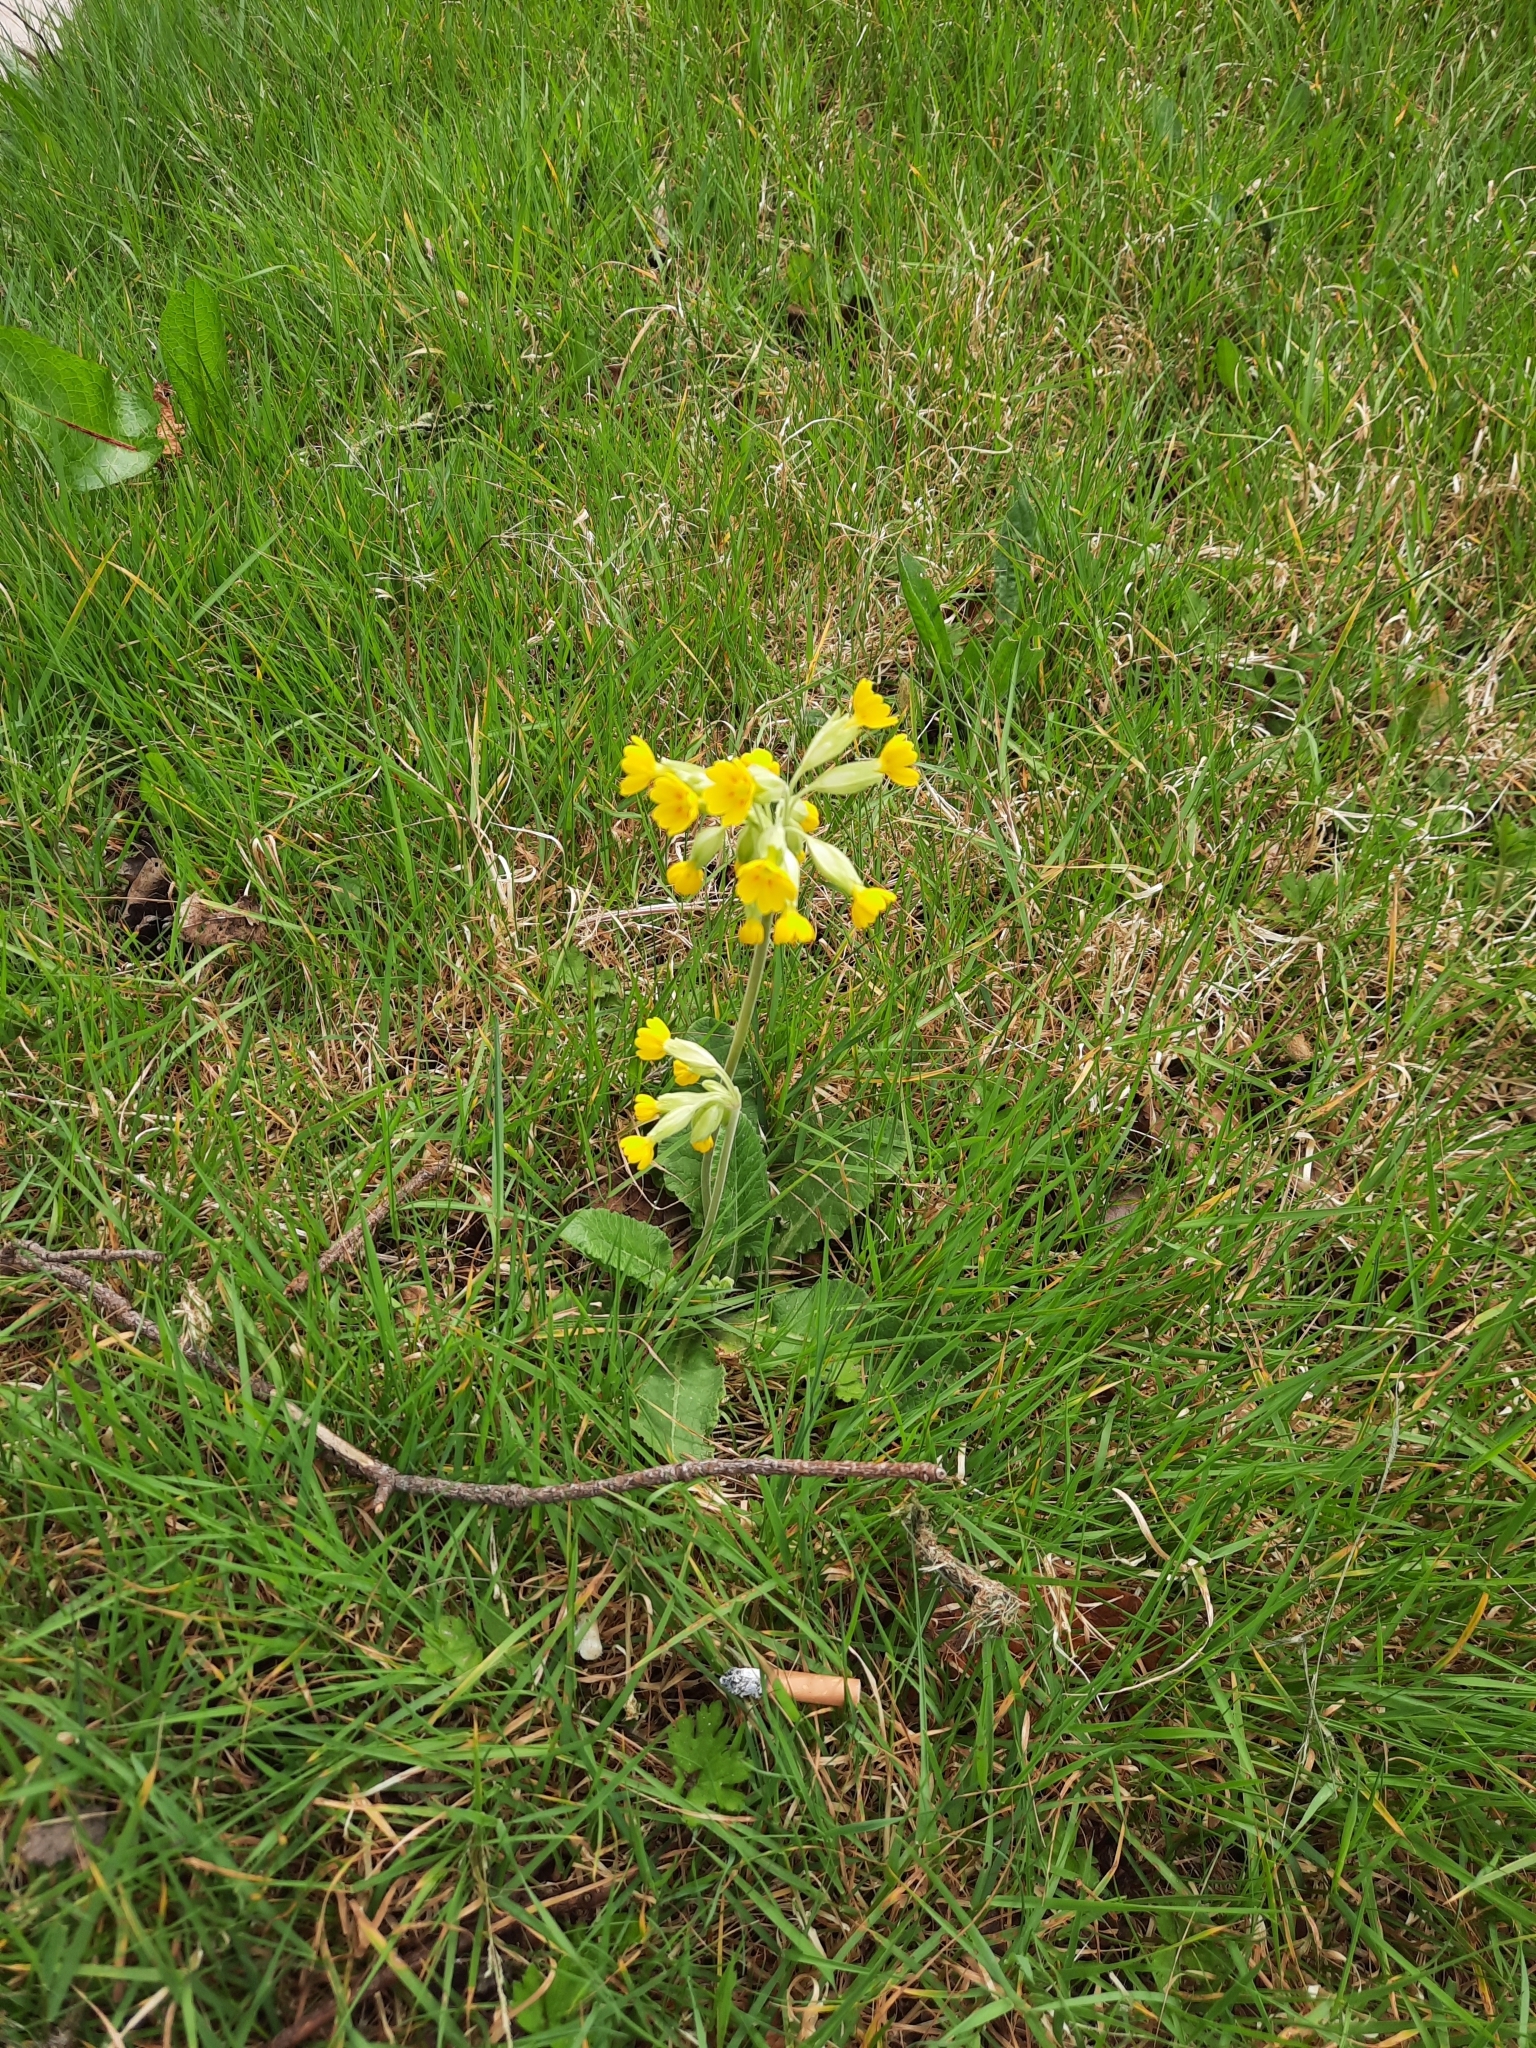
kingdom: Plantae
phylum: Tracheophyta
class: Magnoliopsida
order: Ericales
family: Primulaceae
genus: Primula
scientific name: Primula veris
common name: Cowslip
